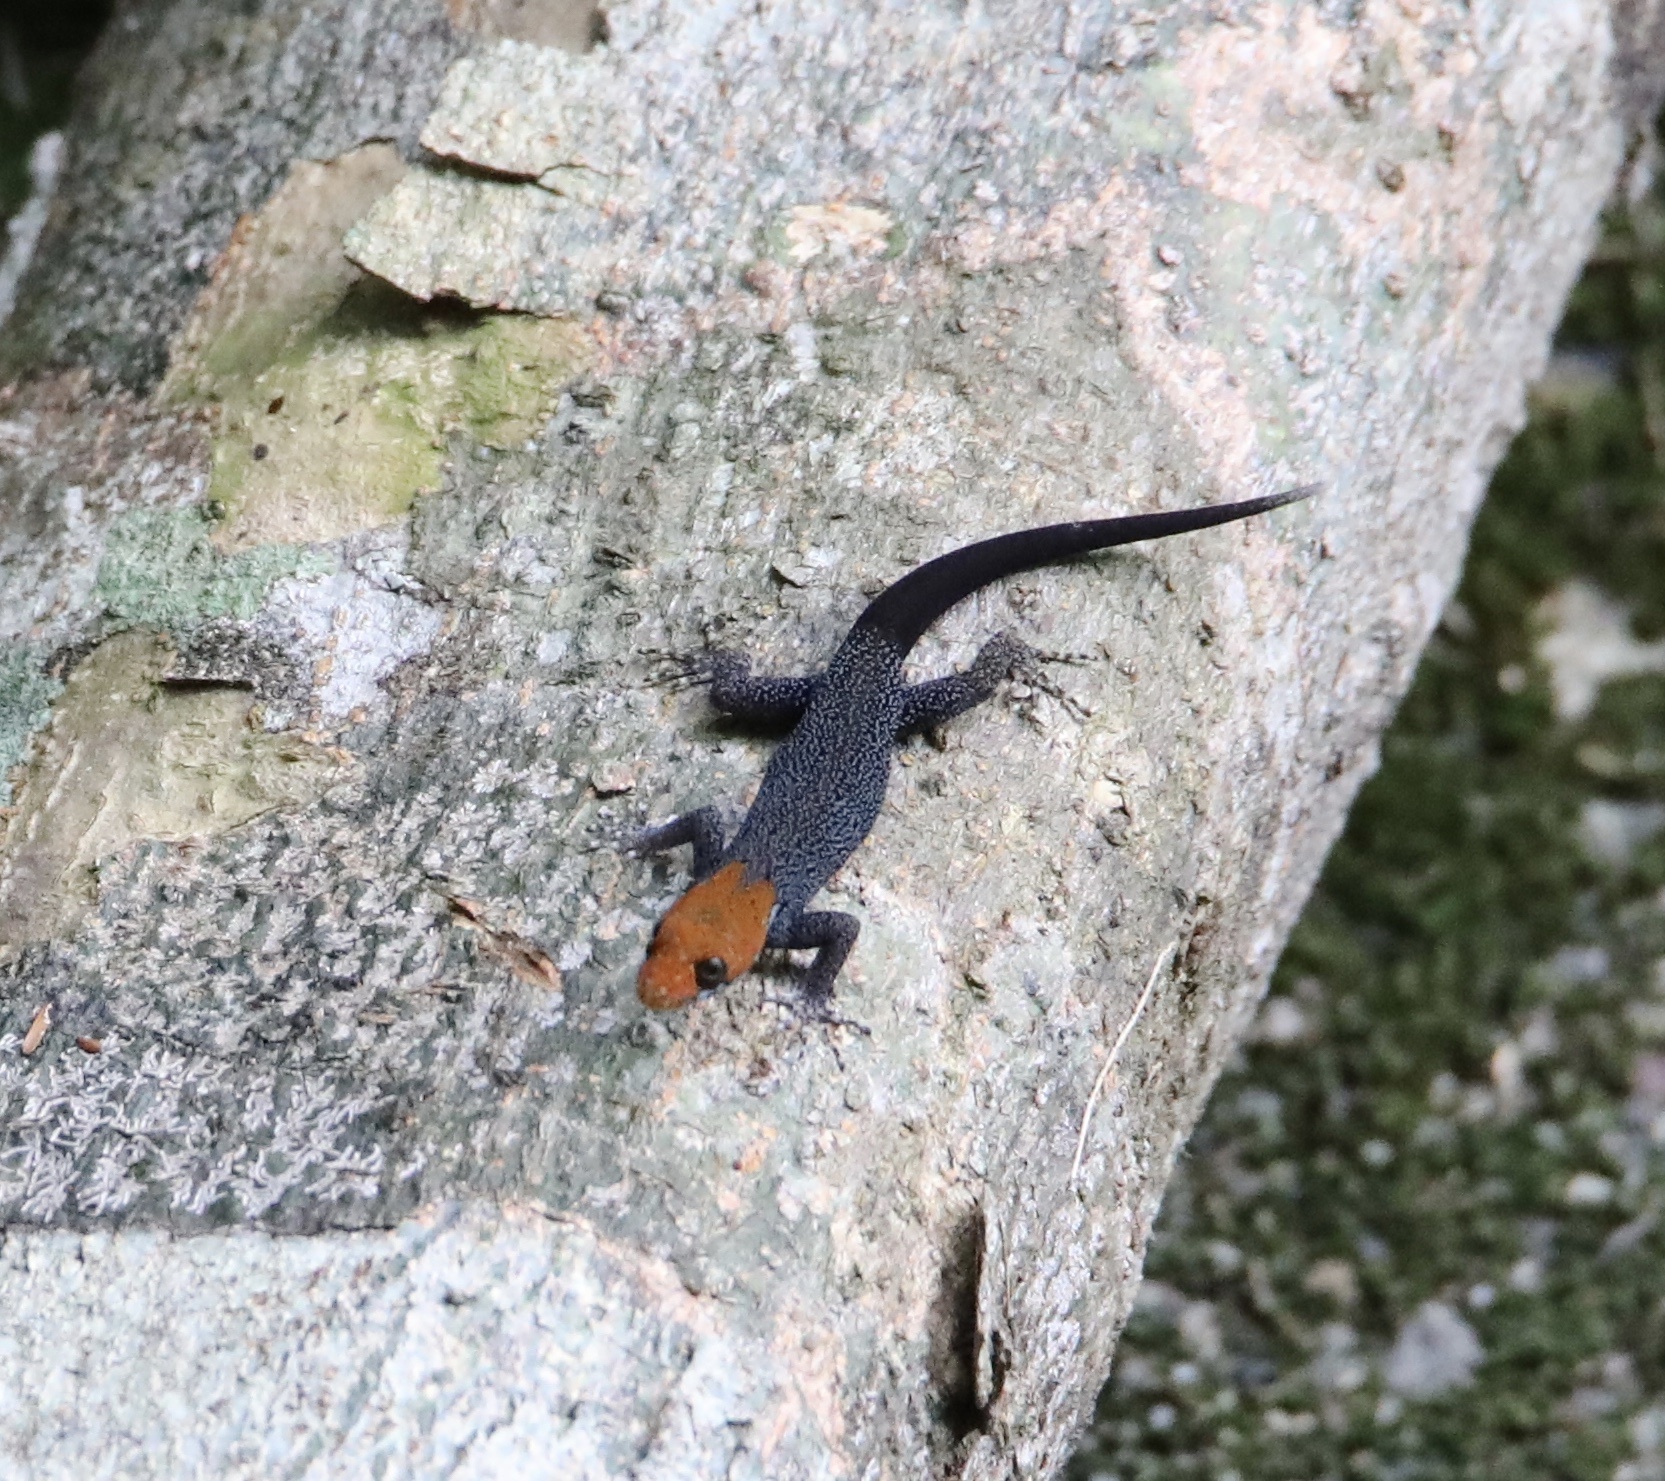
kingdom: Animalia
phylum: Chordata
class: Squamata
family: Sphaerodactylidae
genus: Gonatodes
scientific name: Gonatodes albogularis
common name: Yellow-headed gecko
